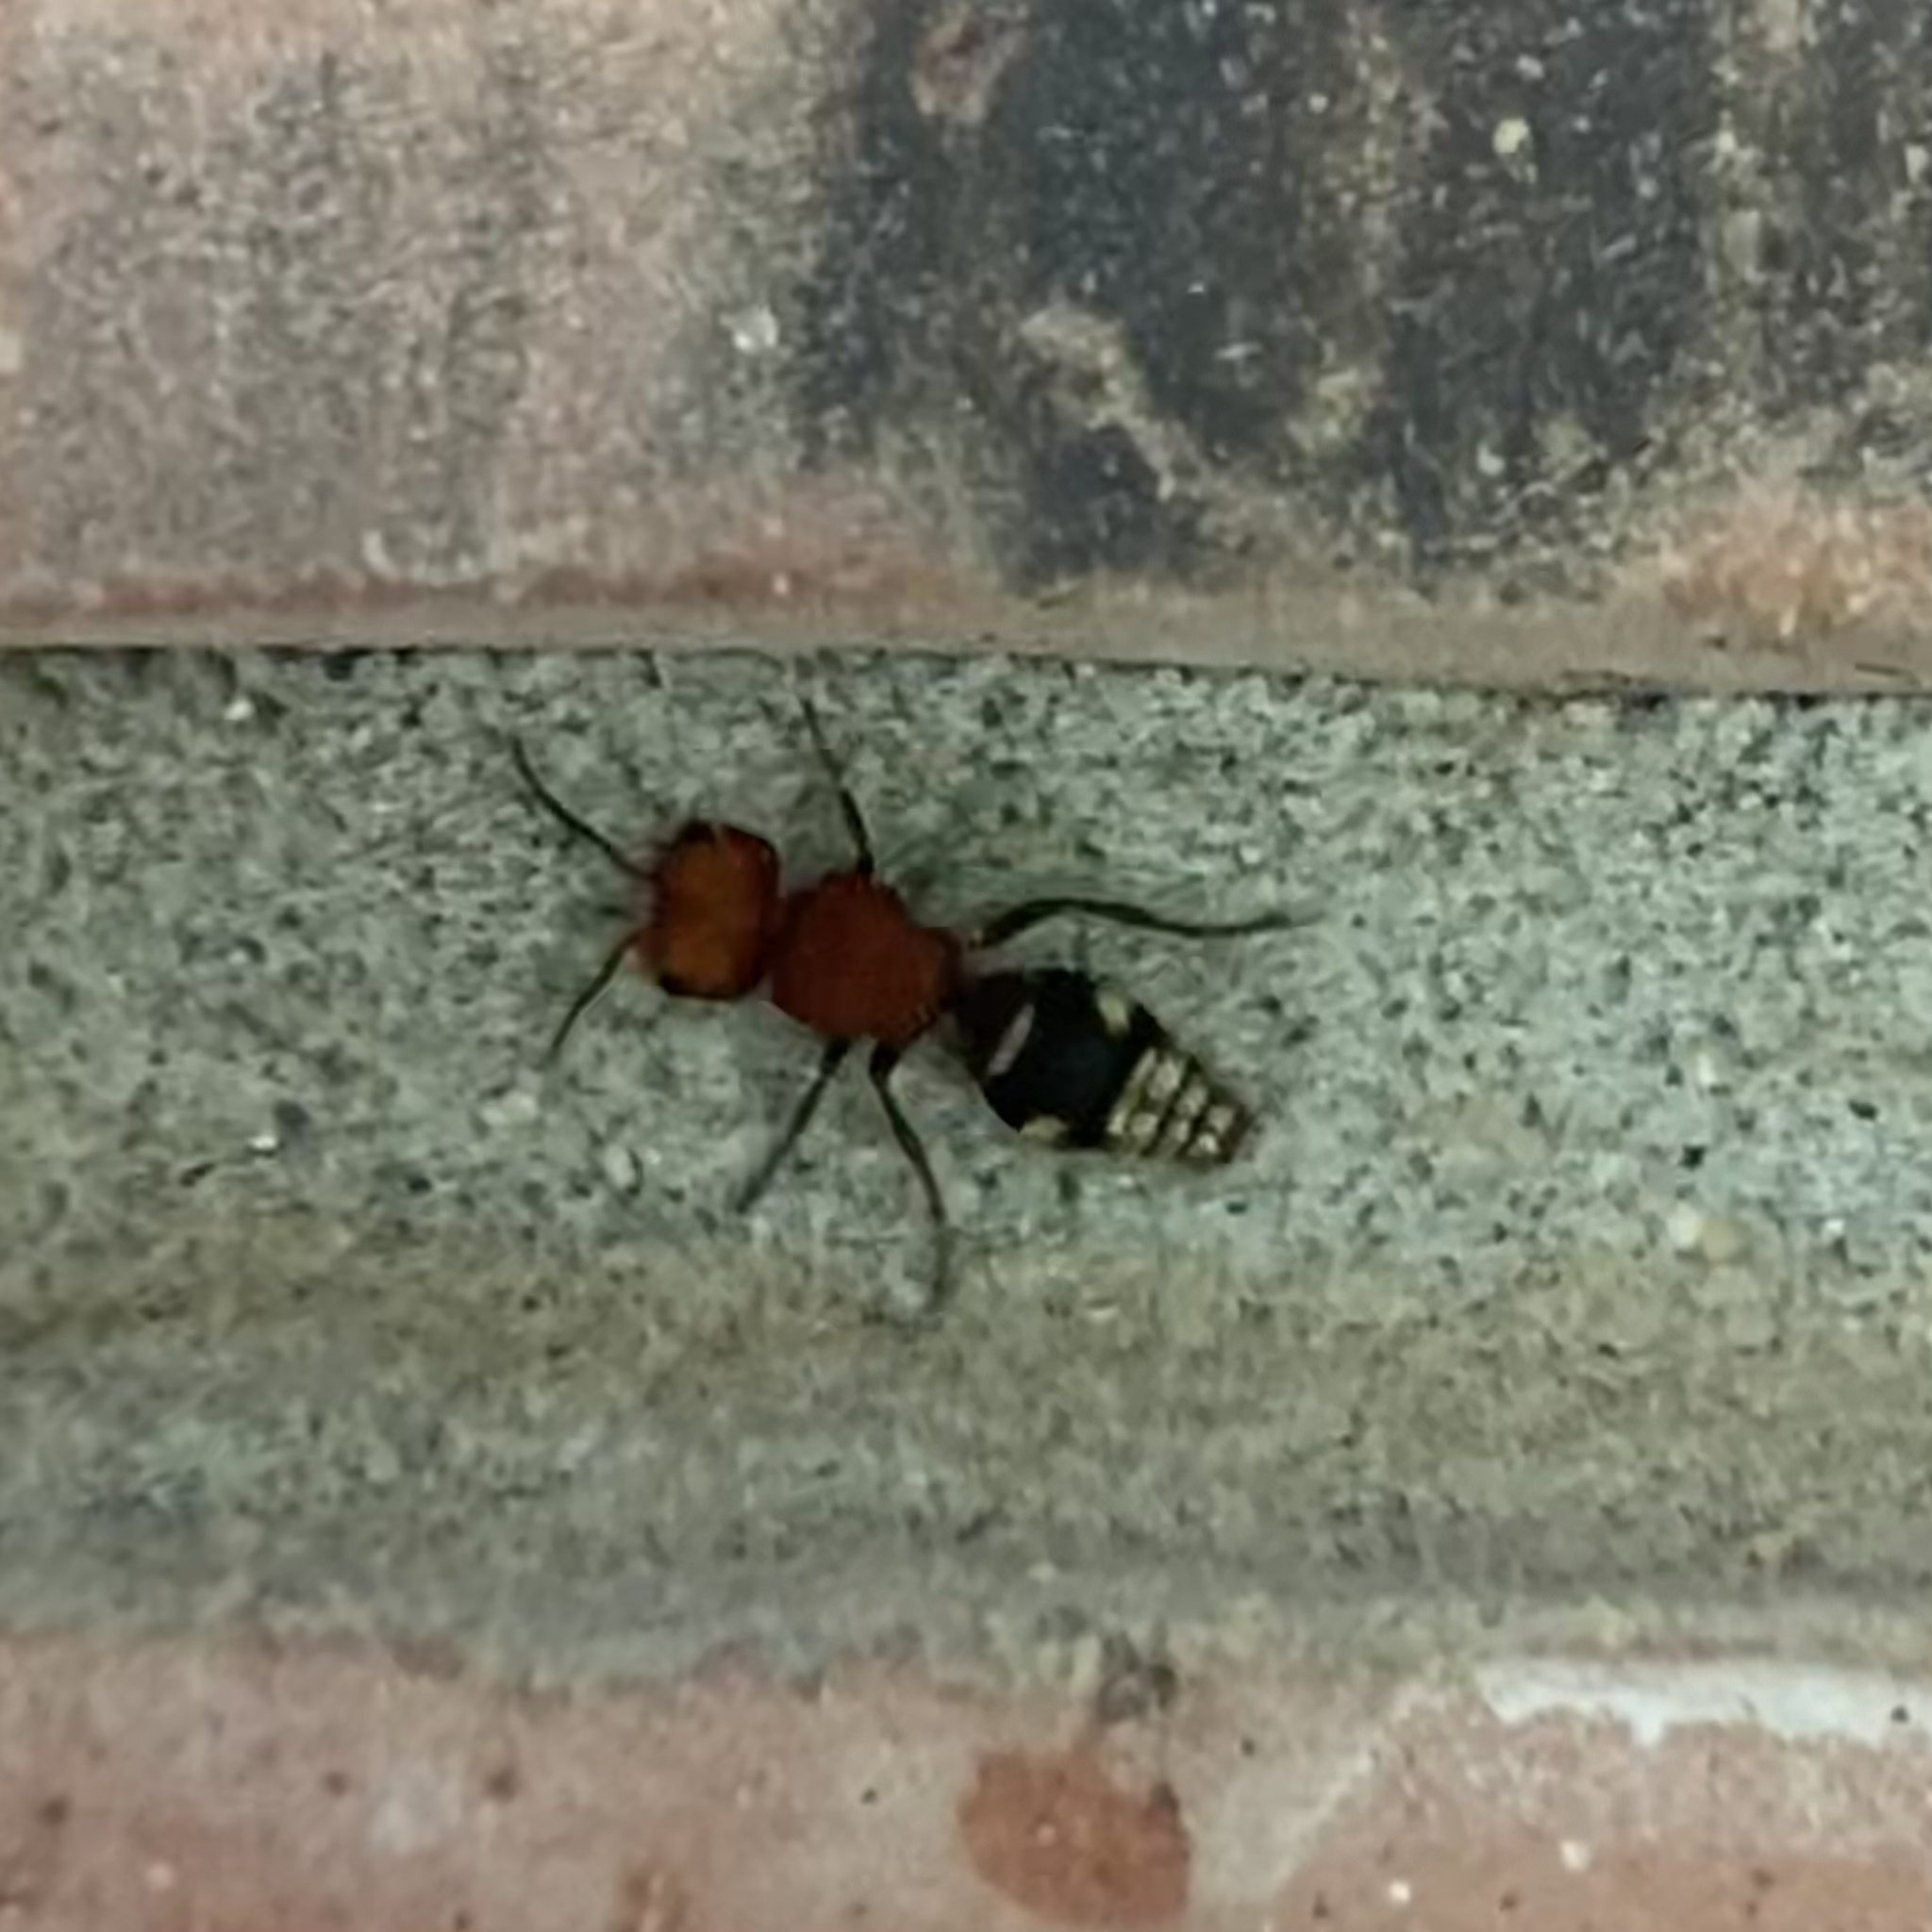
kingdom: Animalia
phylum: Arthropoda
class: Insecta
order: Hymenoptera
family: Mutillidae
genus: Pseudomethoca
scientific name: Pseudomethoca wickhami
